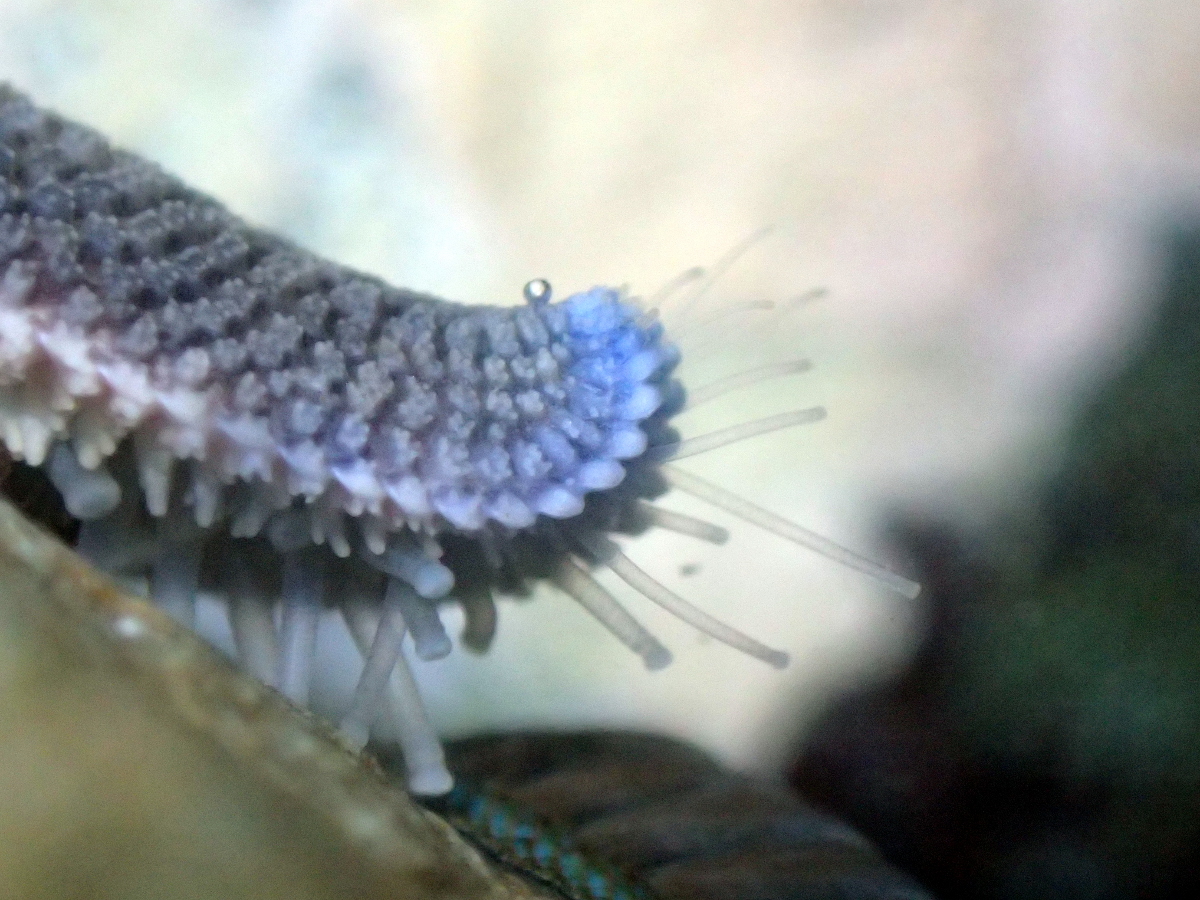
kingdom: Animalia
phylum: Echinodermata
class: Asteroidea
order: Valvatida
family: Asterinidae
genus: Patiriella
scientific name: Patiriella regularis
